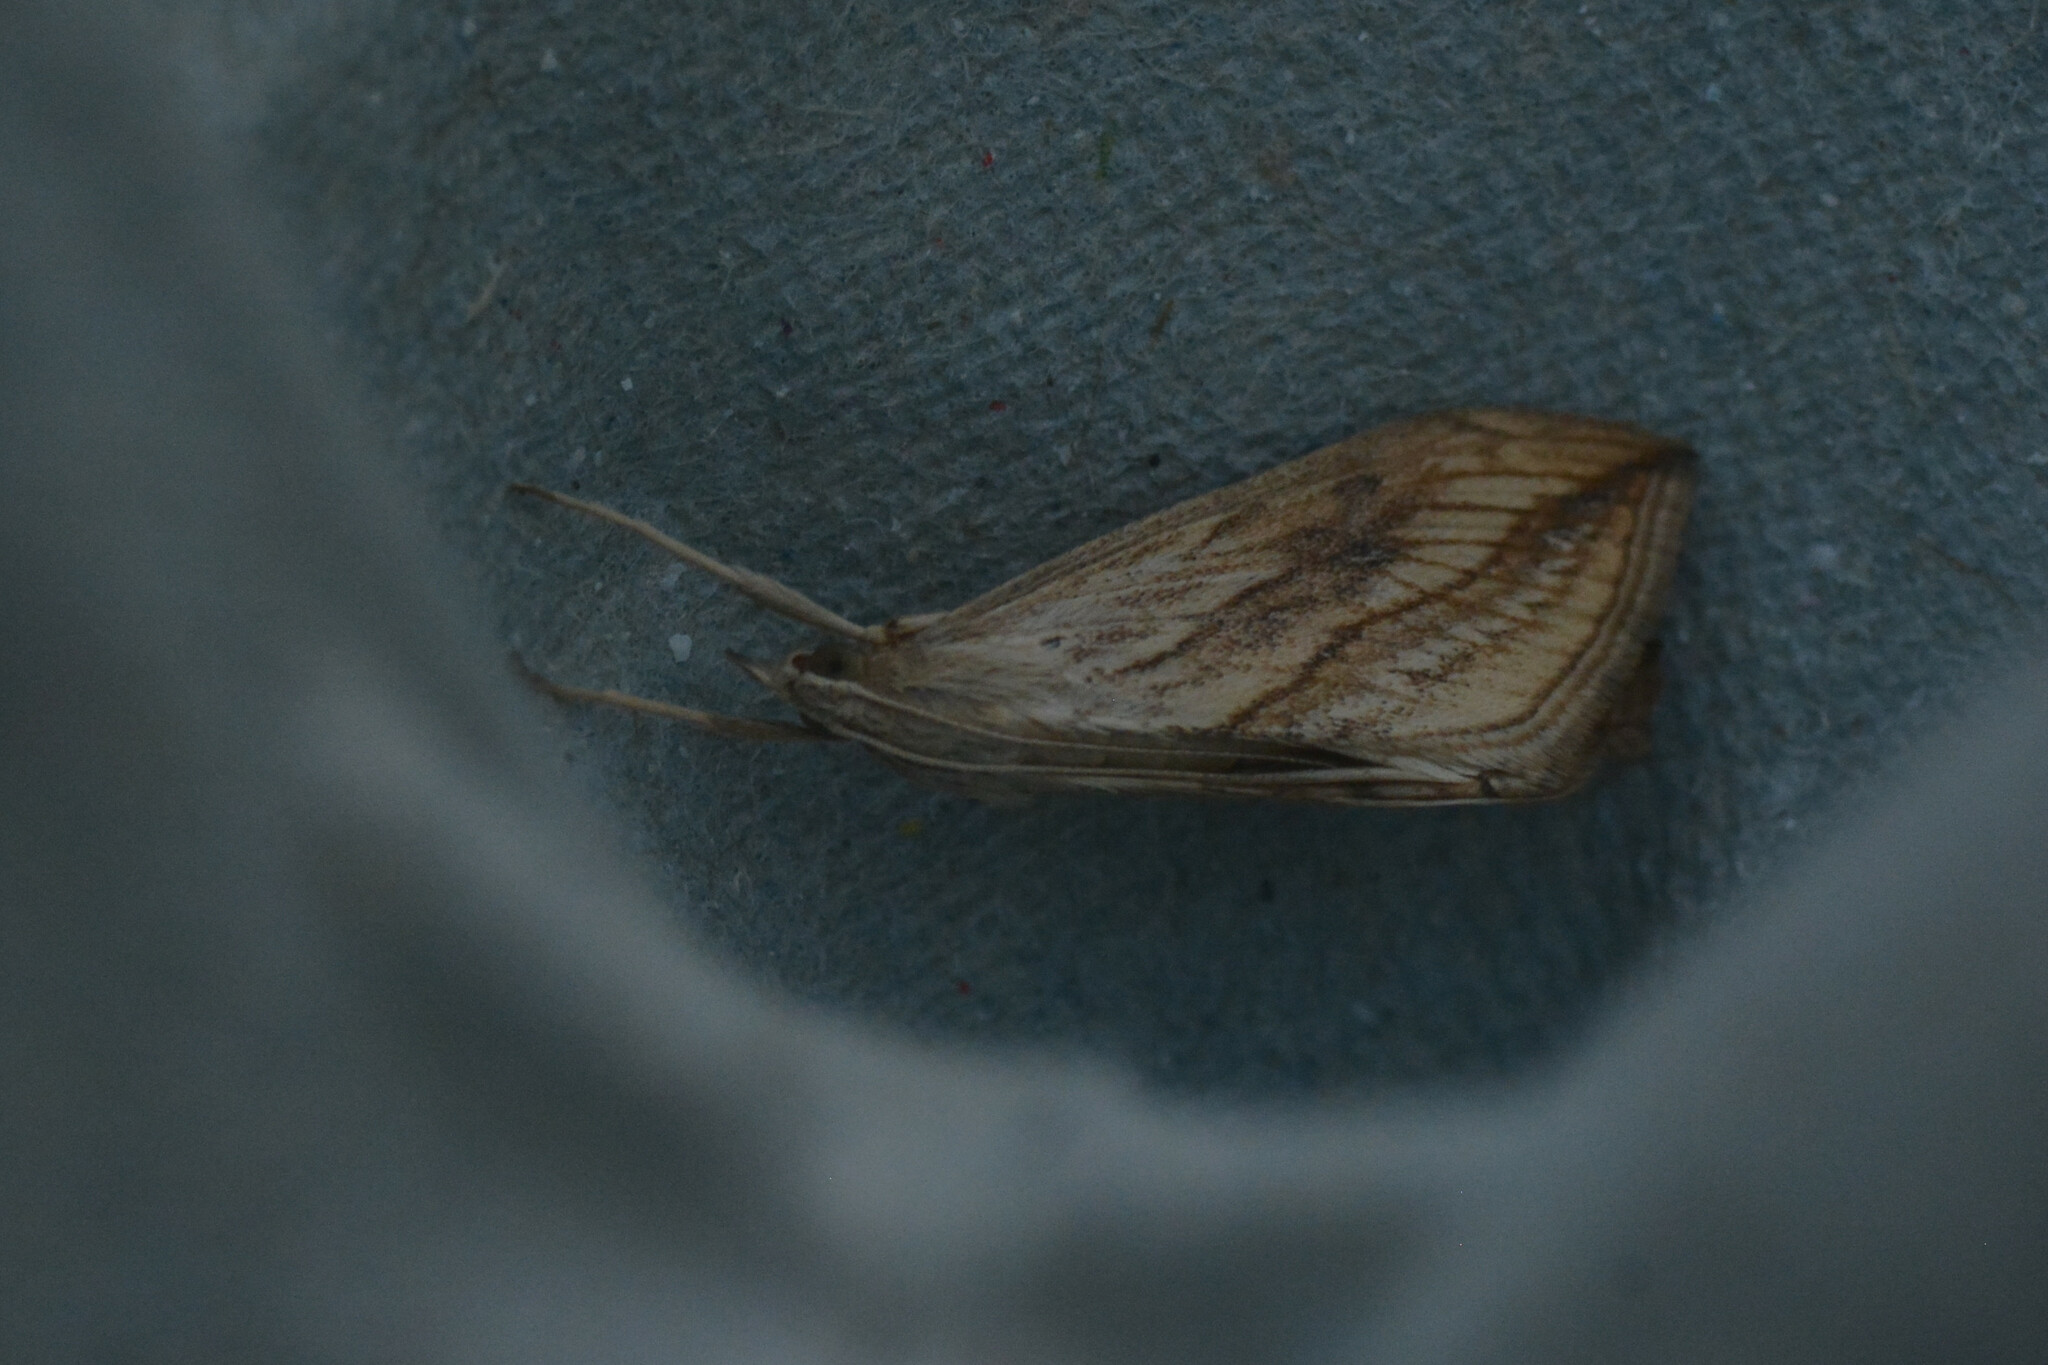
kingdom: Animalia
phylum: Arthropoda
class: Insecta
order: Lepidoptera
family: Crambidae
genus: Evergestis
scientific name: Evergestis forficalis
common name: Garden pebble
